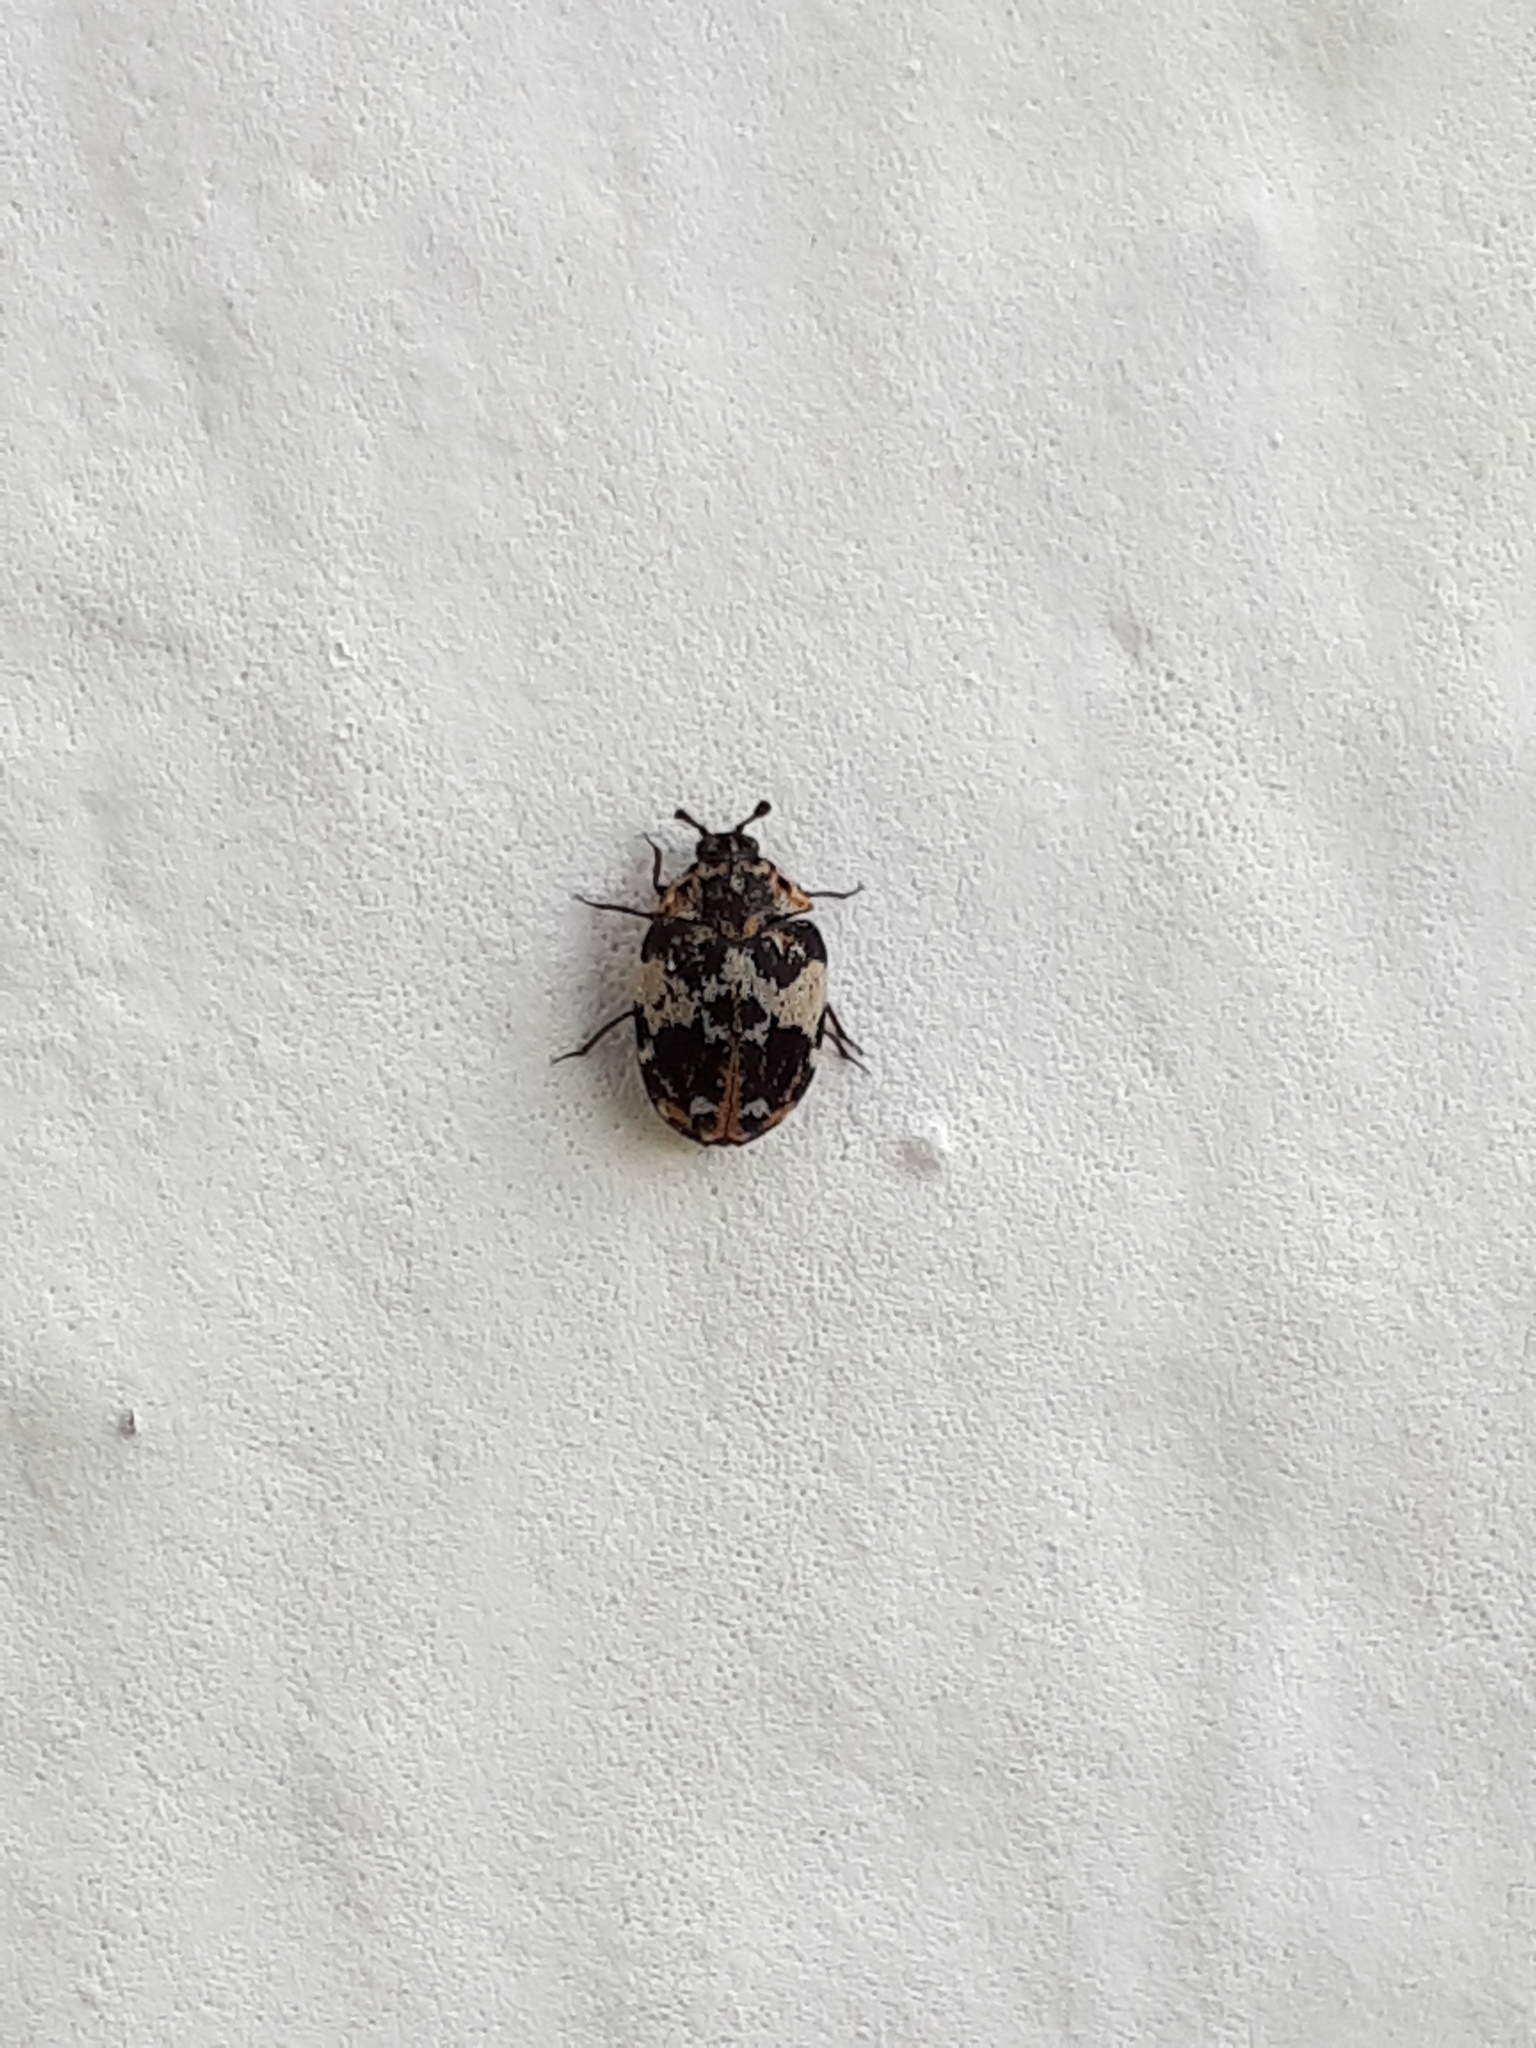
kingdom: Animalia
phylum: Arthropoda
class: Insecta
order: Coleoptera
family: Dermestidae
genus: Anthrenus
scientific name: Anthrenus pimpinellae
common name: Dermestid beetle
